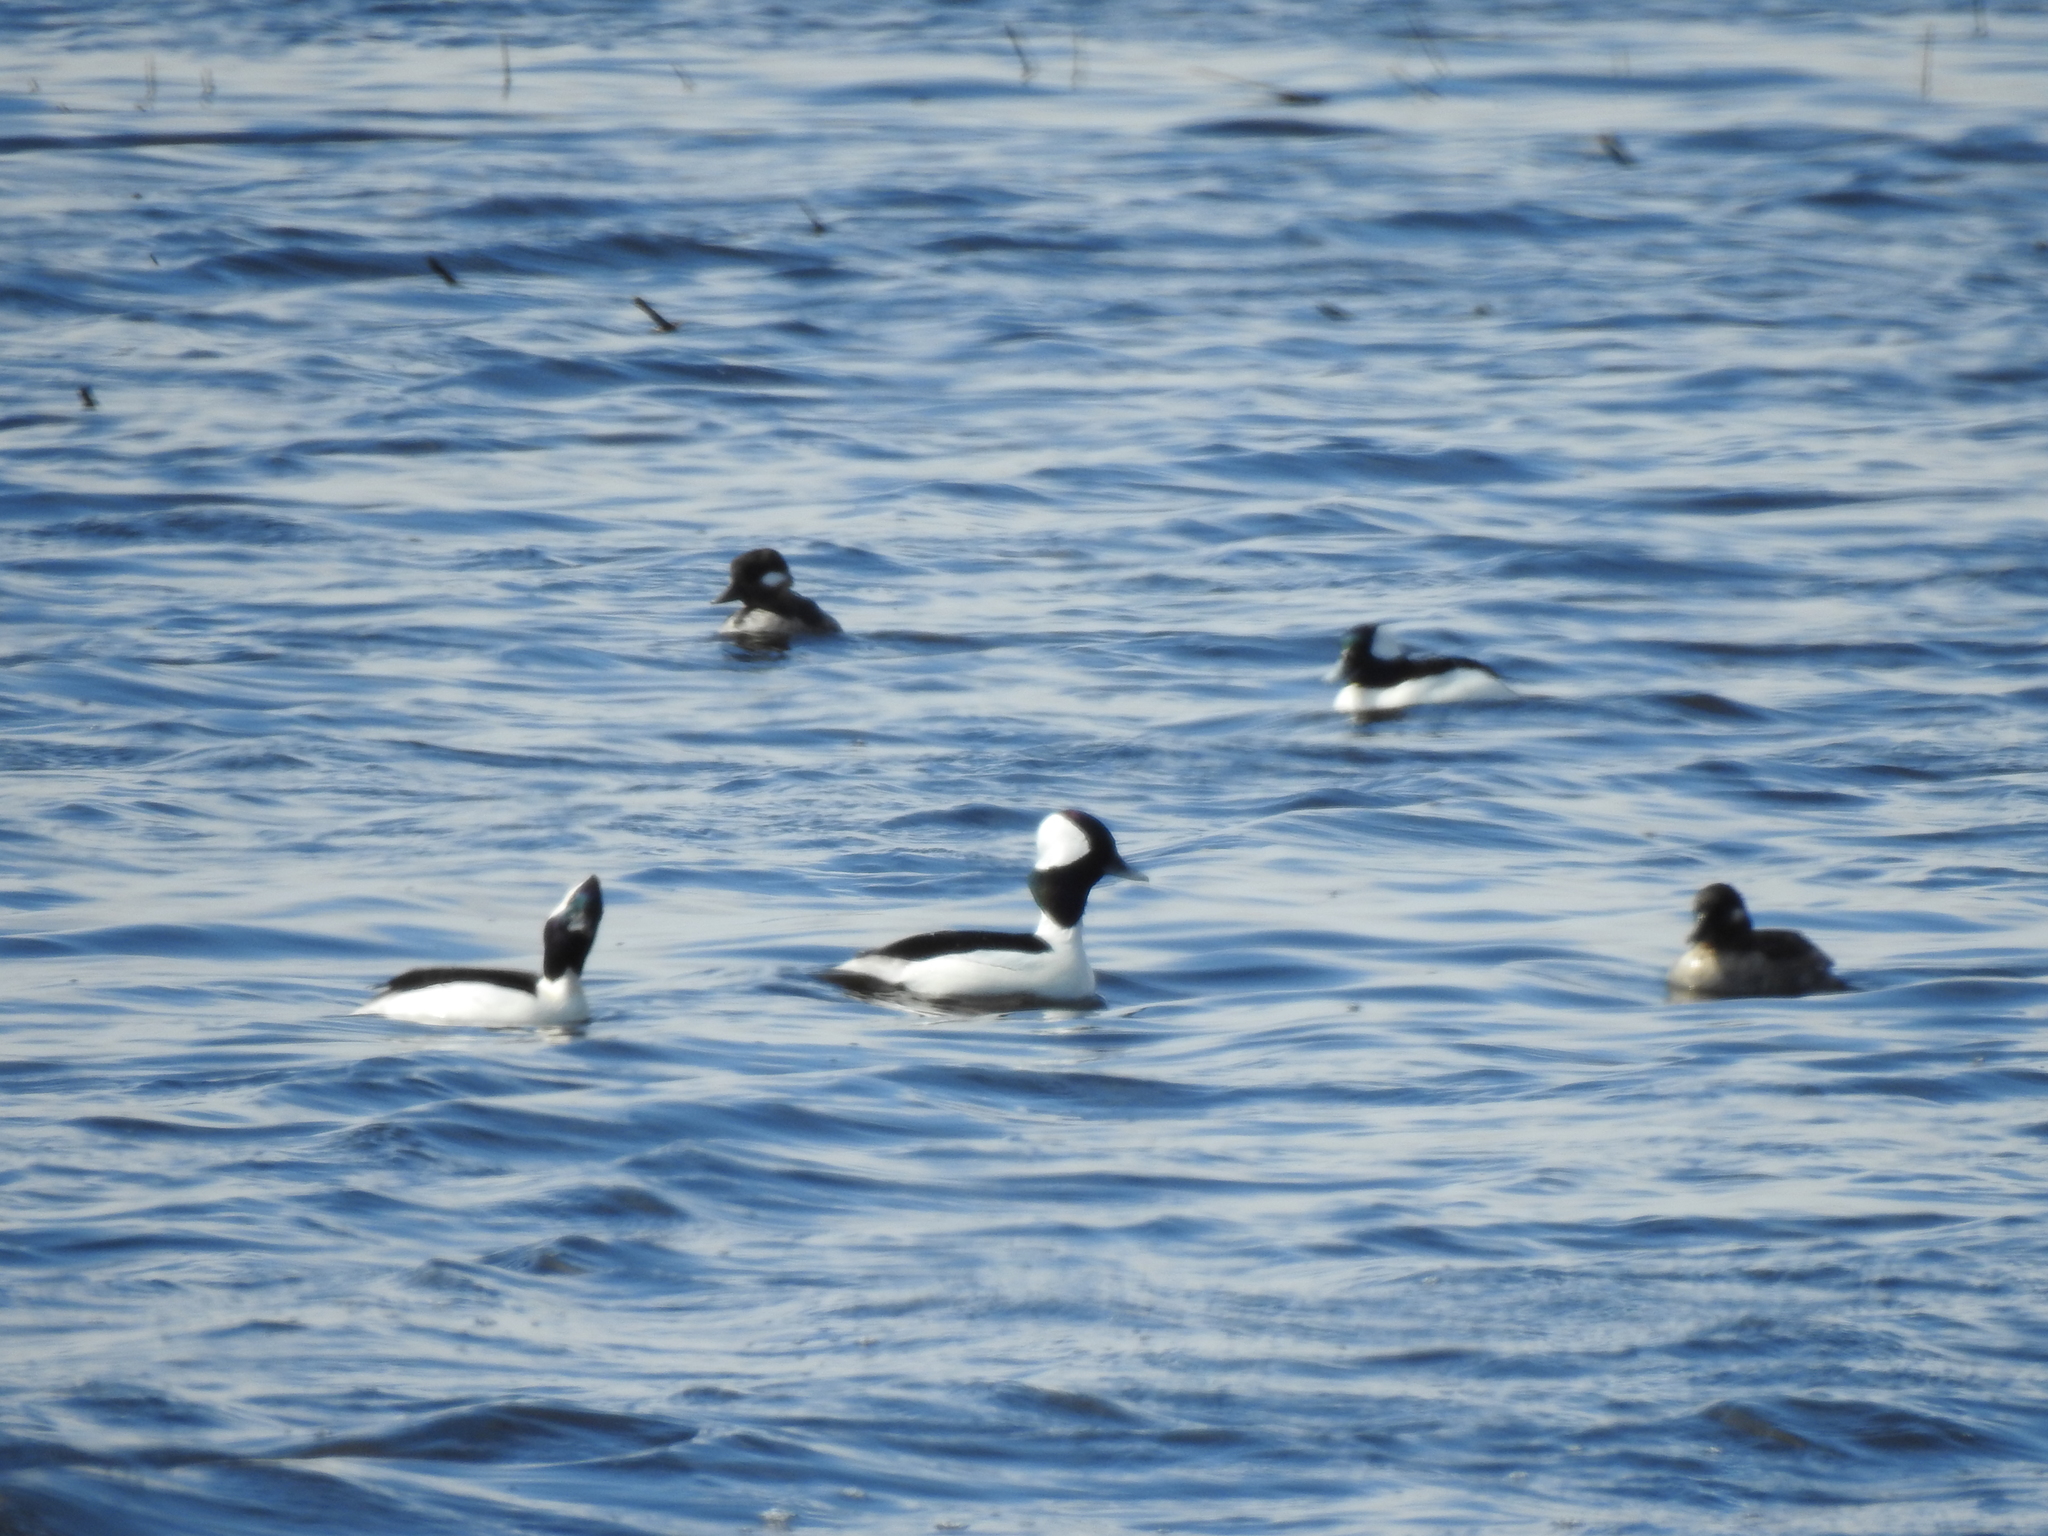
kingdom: Animalia
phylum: Chordata
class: Aves
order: Anseriformes
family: Anatidae
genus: Bucephala
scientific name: Bucephala albeola
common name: Bufflehead
